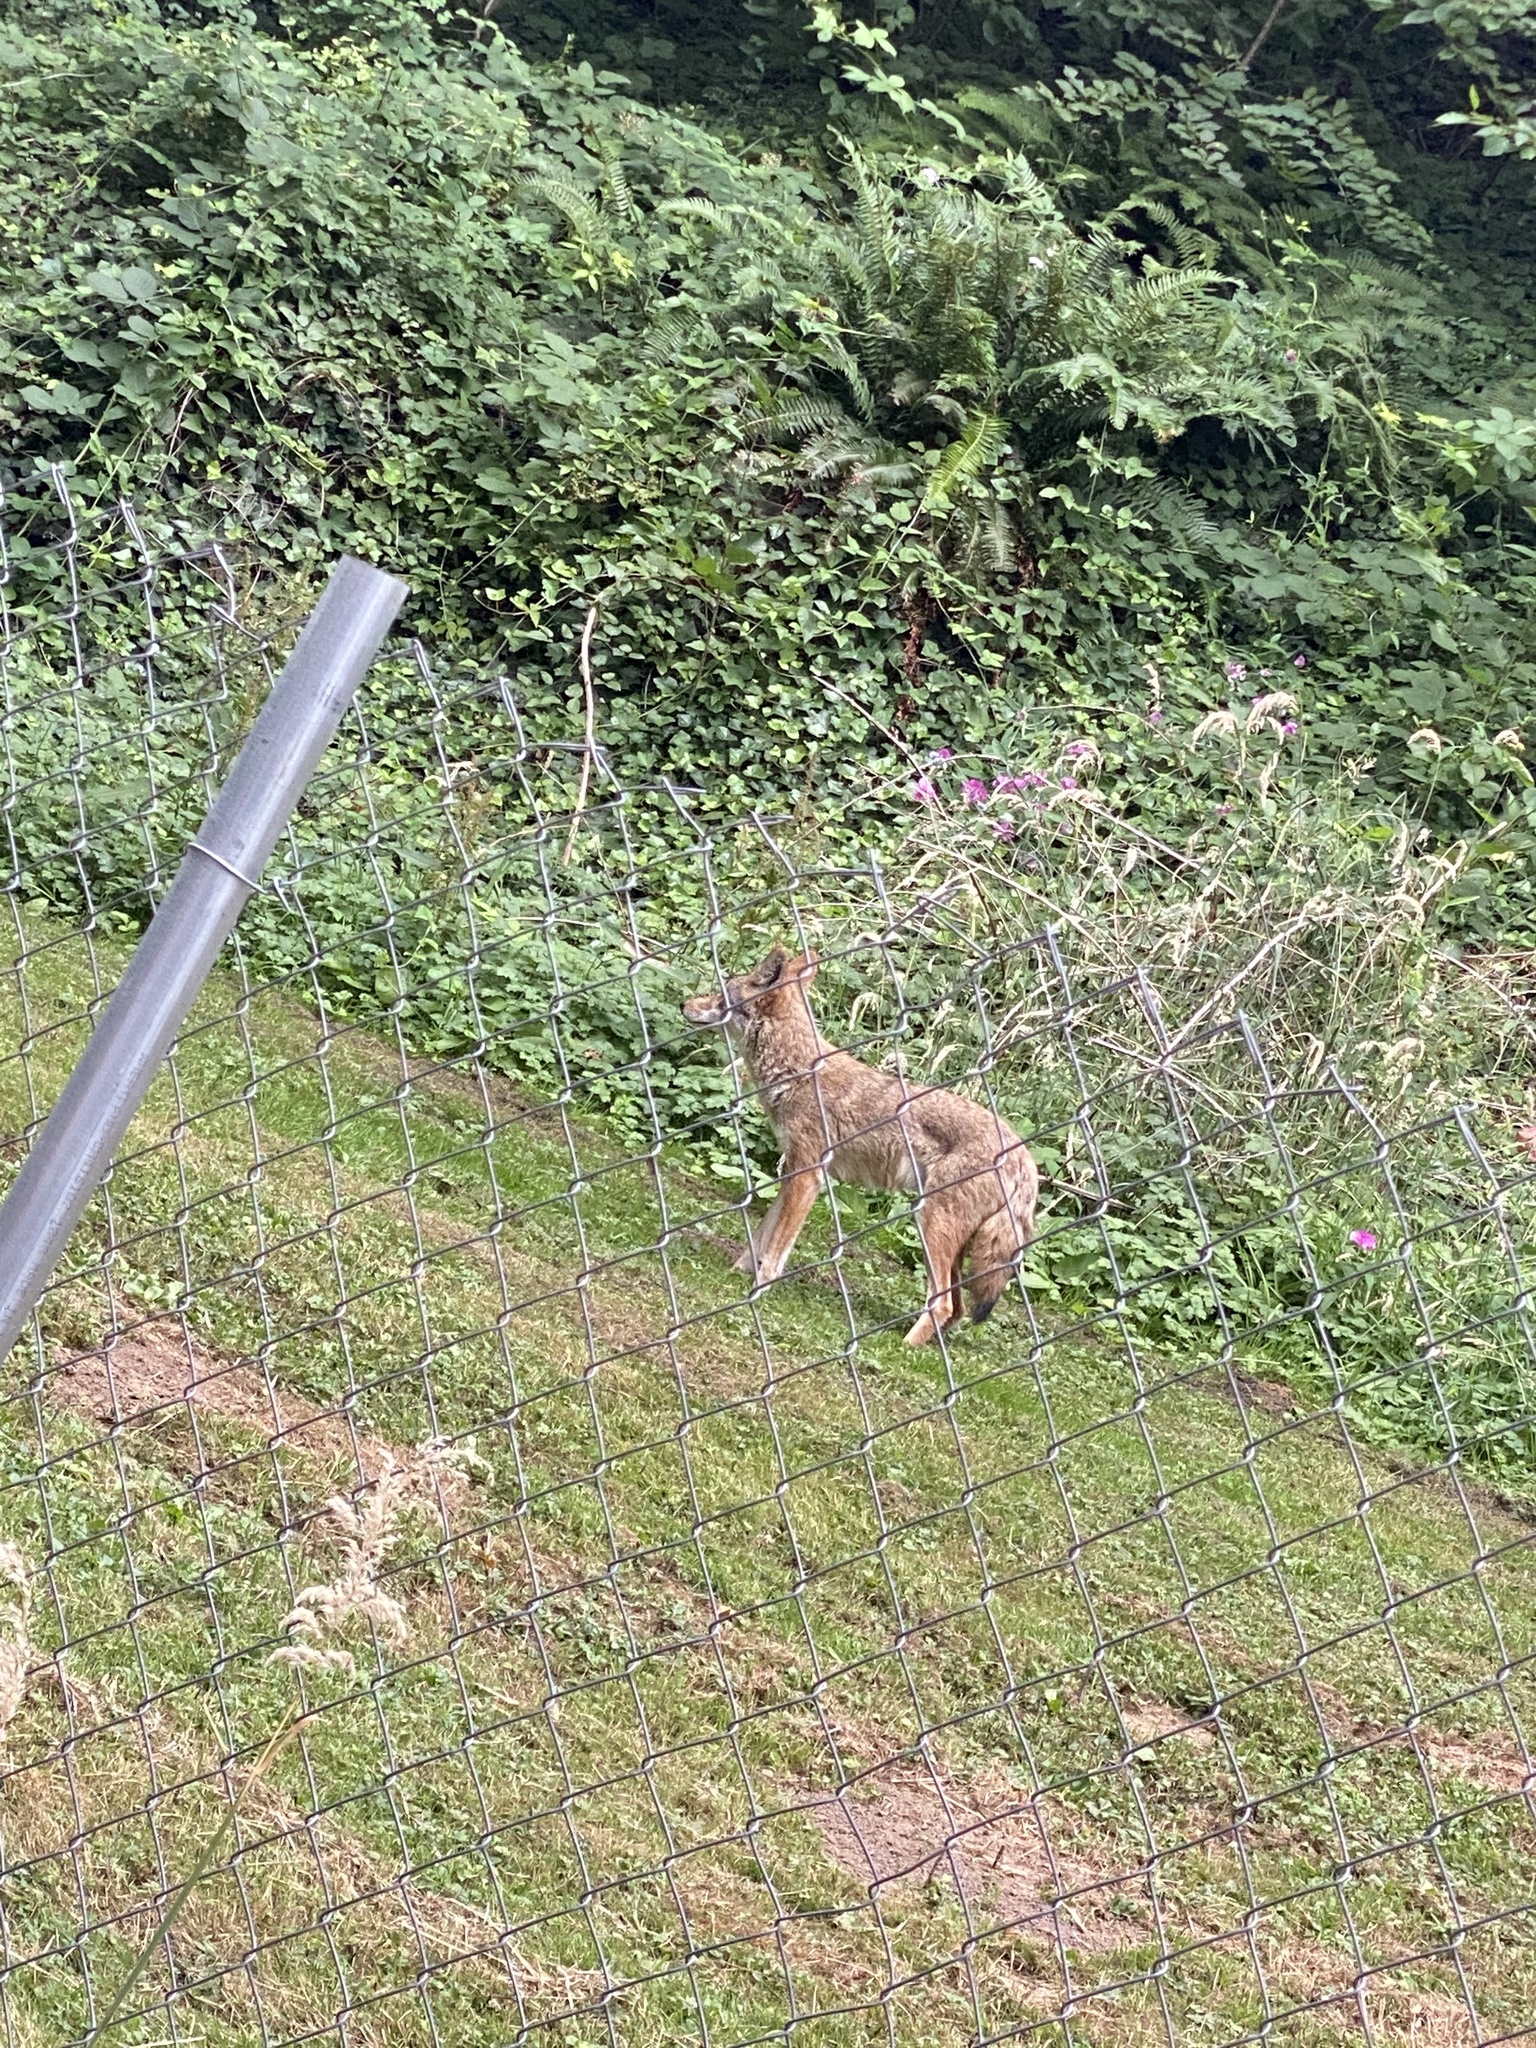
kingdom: Animalia
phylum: Chordata
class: Mammalia
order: Carnivora
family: Canidae
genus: Canis
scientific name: Canis latrans
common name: Coyote
